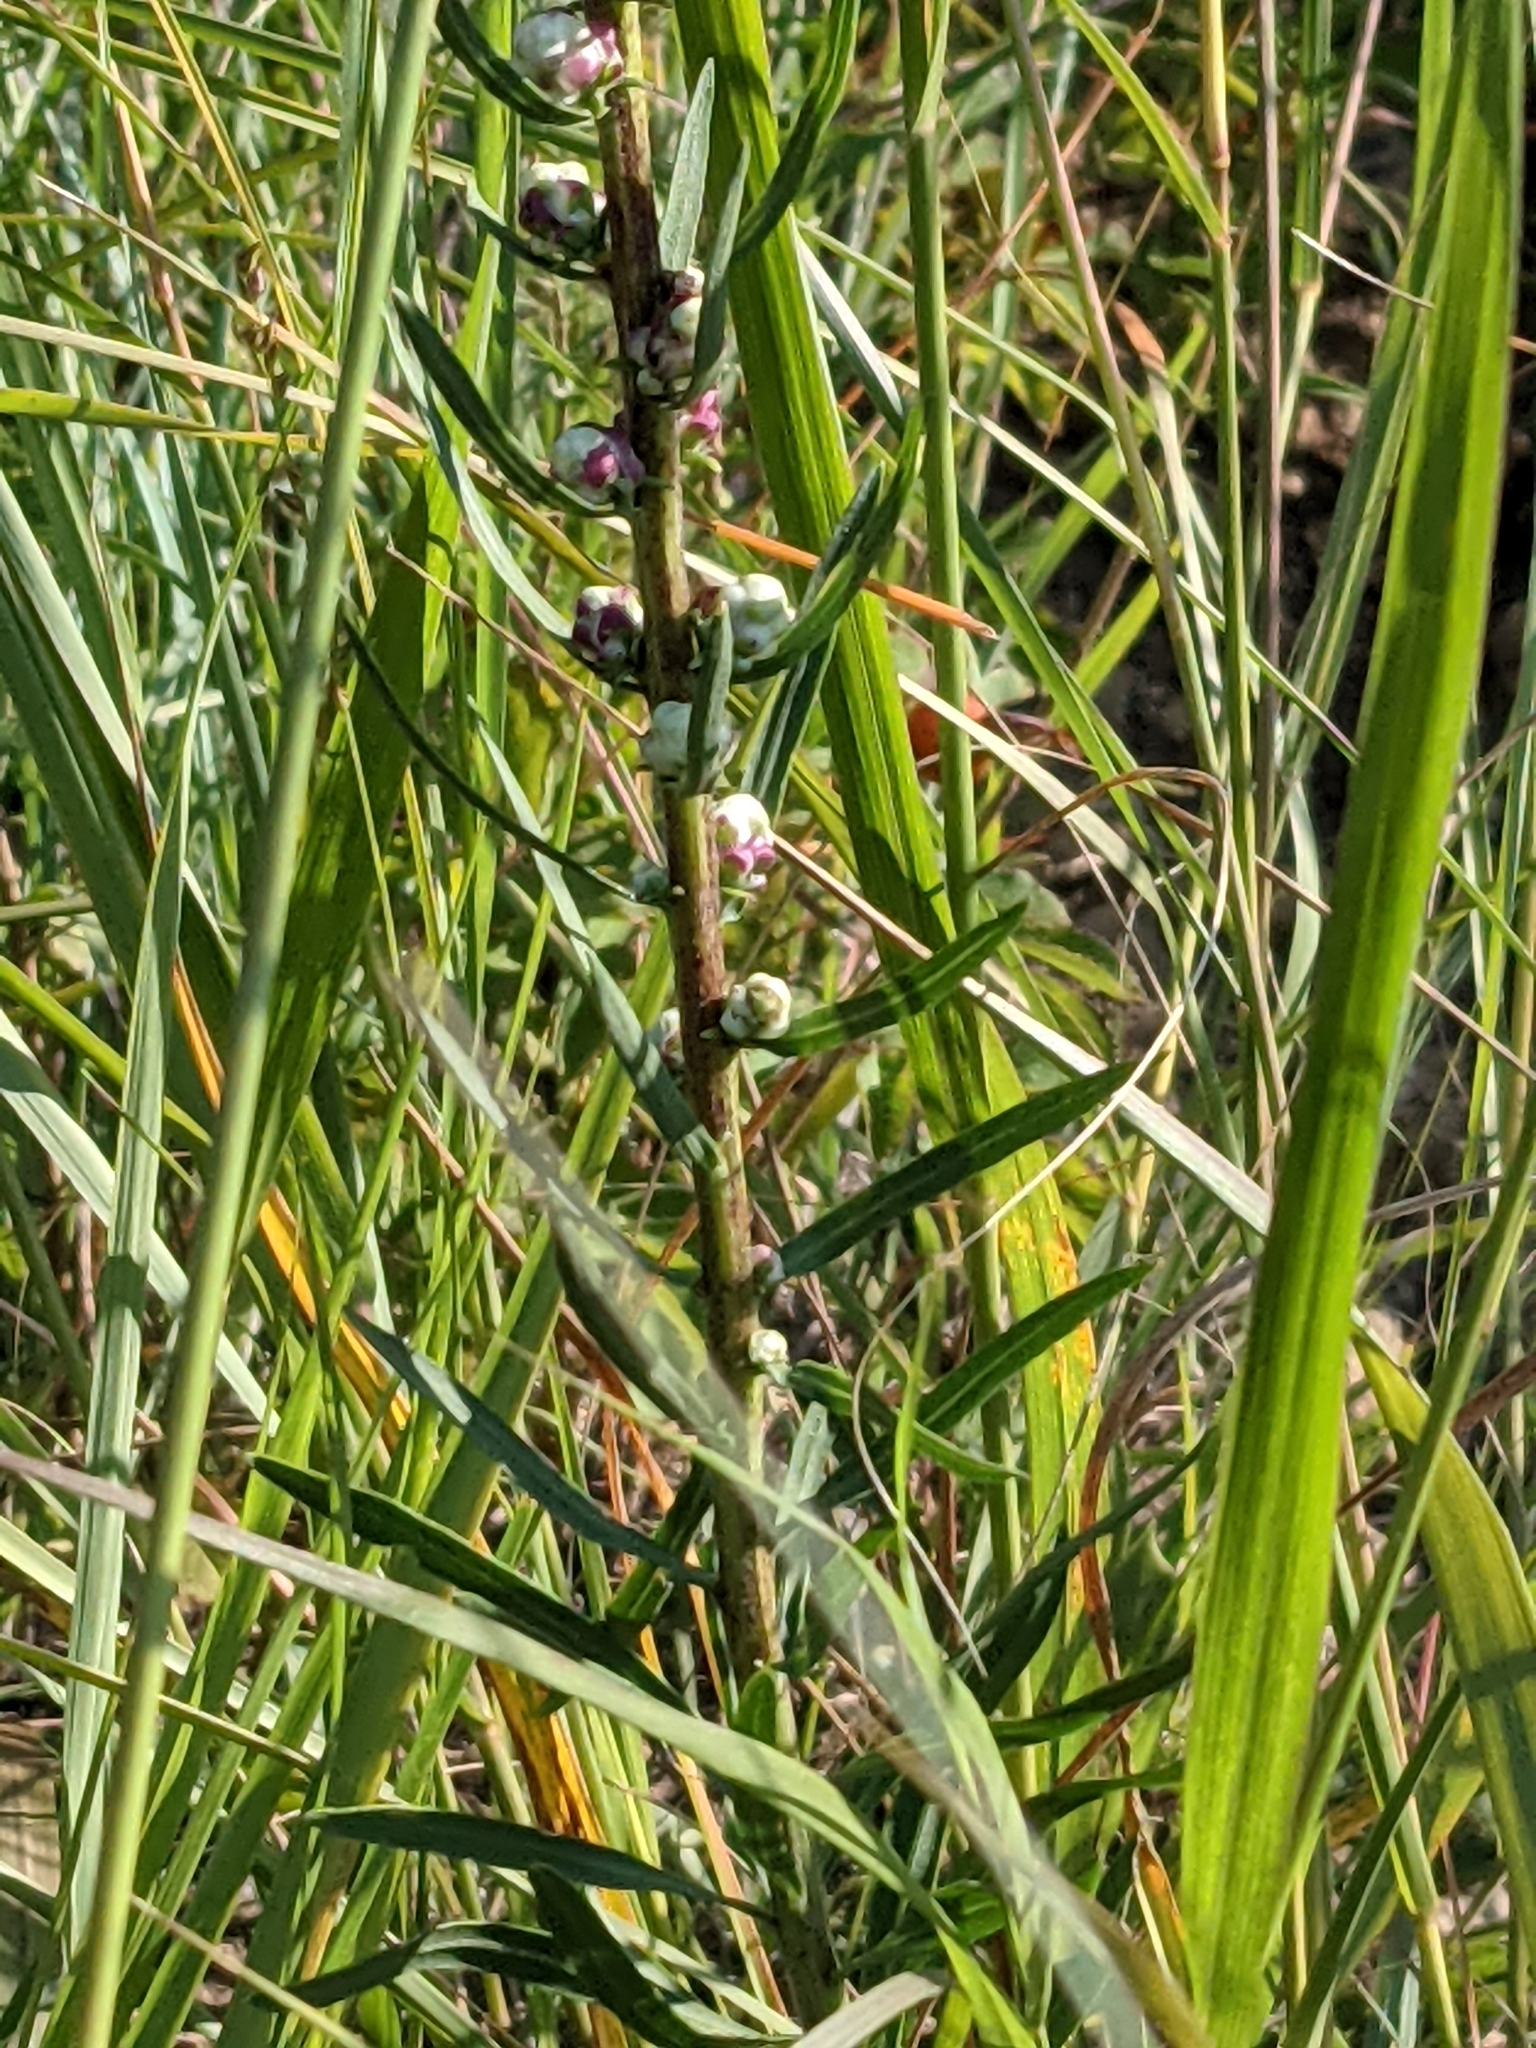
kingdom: Plantae
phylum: Tracheophyta
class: Magnoliopsida
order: Asterales
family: Asteraceae
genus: Liatris
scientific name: Liatris aspera
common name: Lacerate blazing-star
